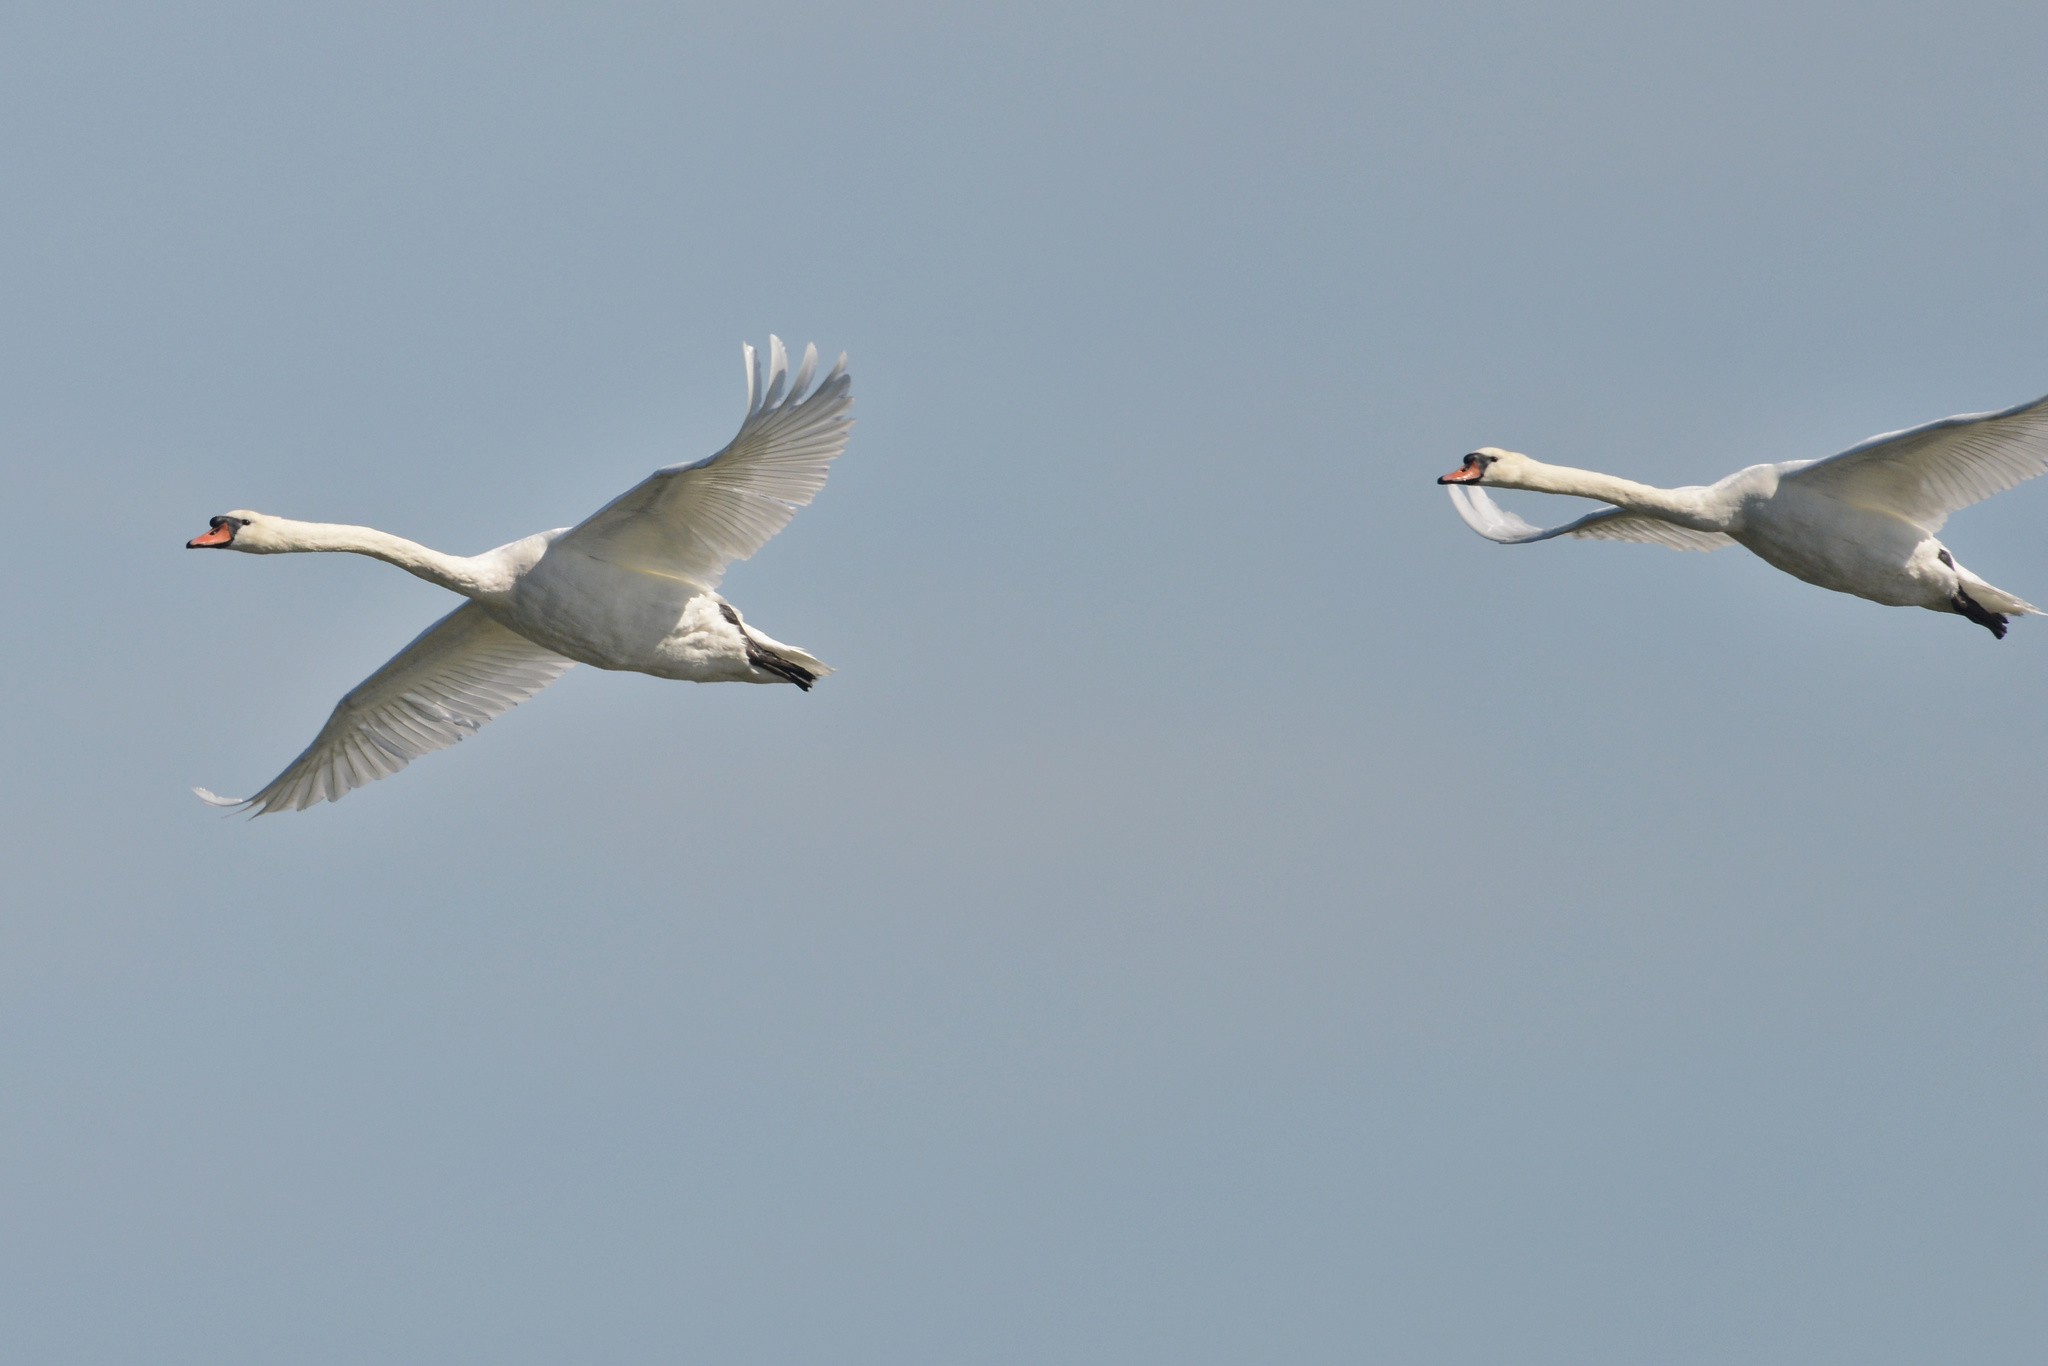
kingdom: Animalia
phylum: Chordata
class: Aves
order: Anseriformes
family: Anatidae
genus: Cygnus
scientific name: Cygnus olor
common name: Mute swan
